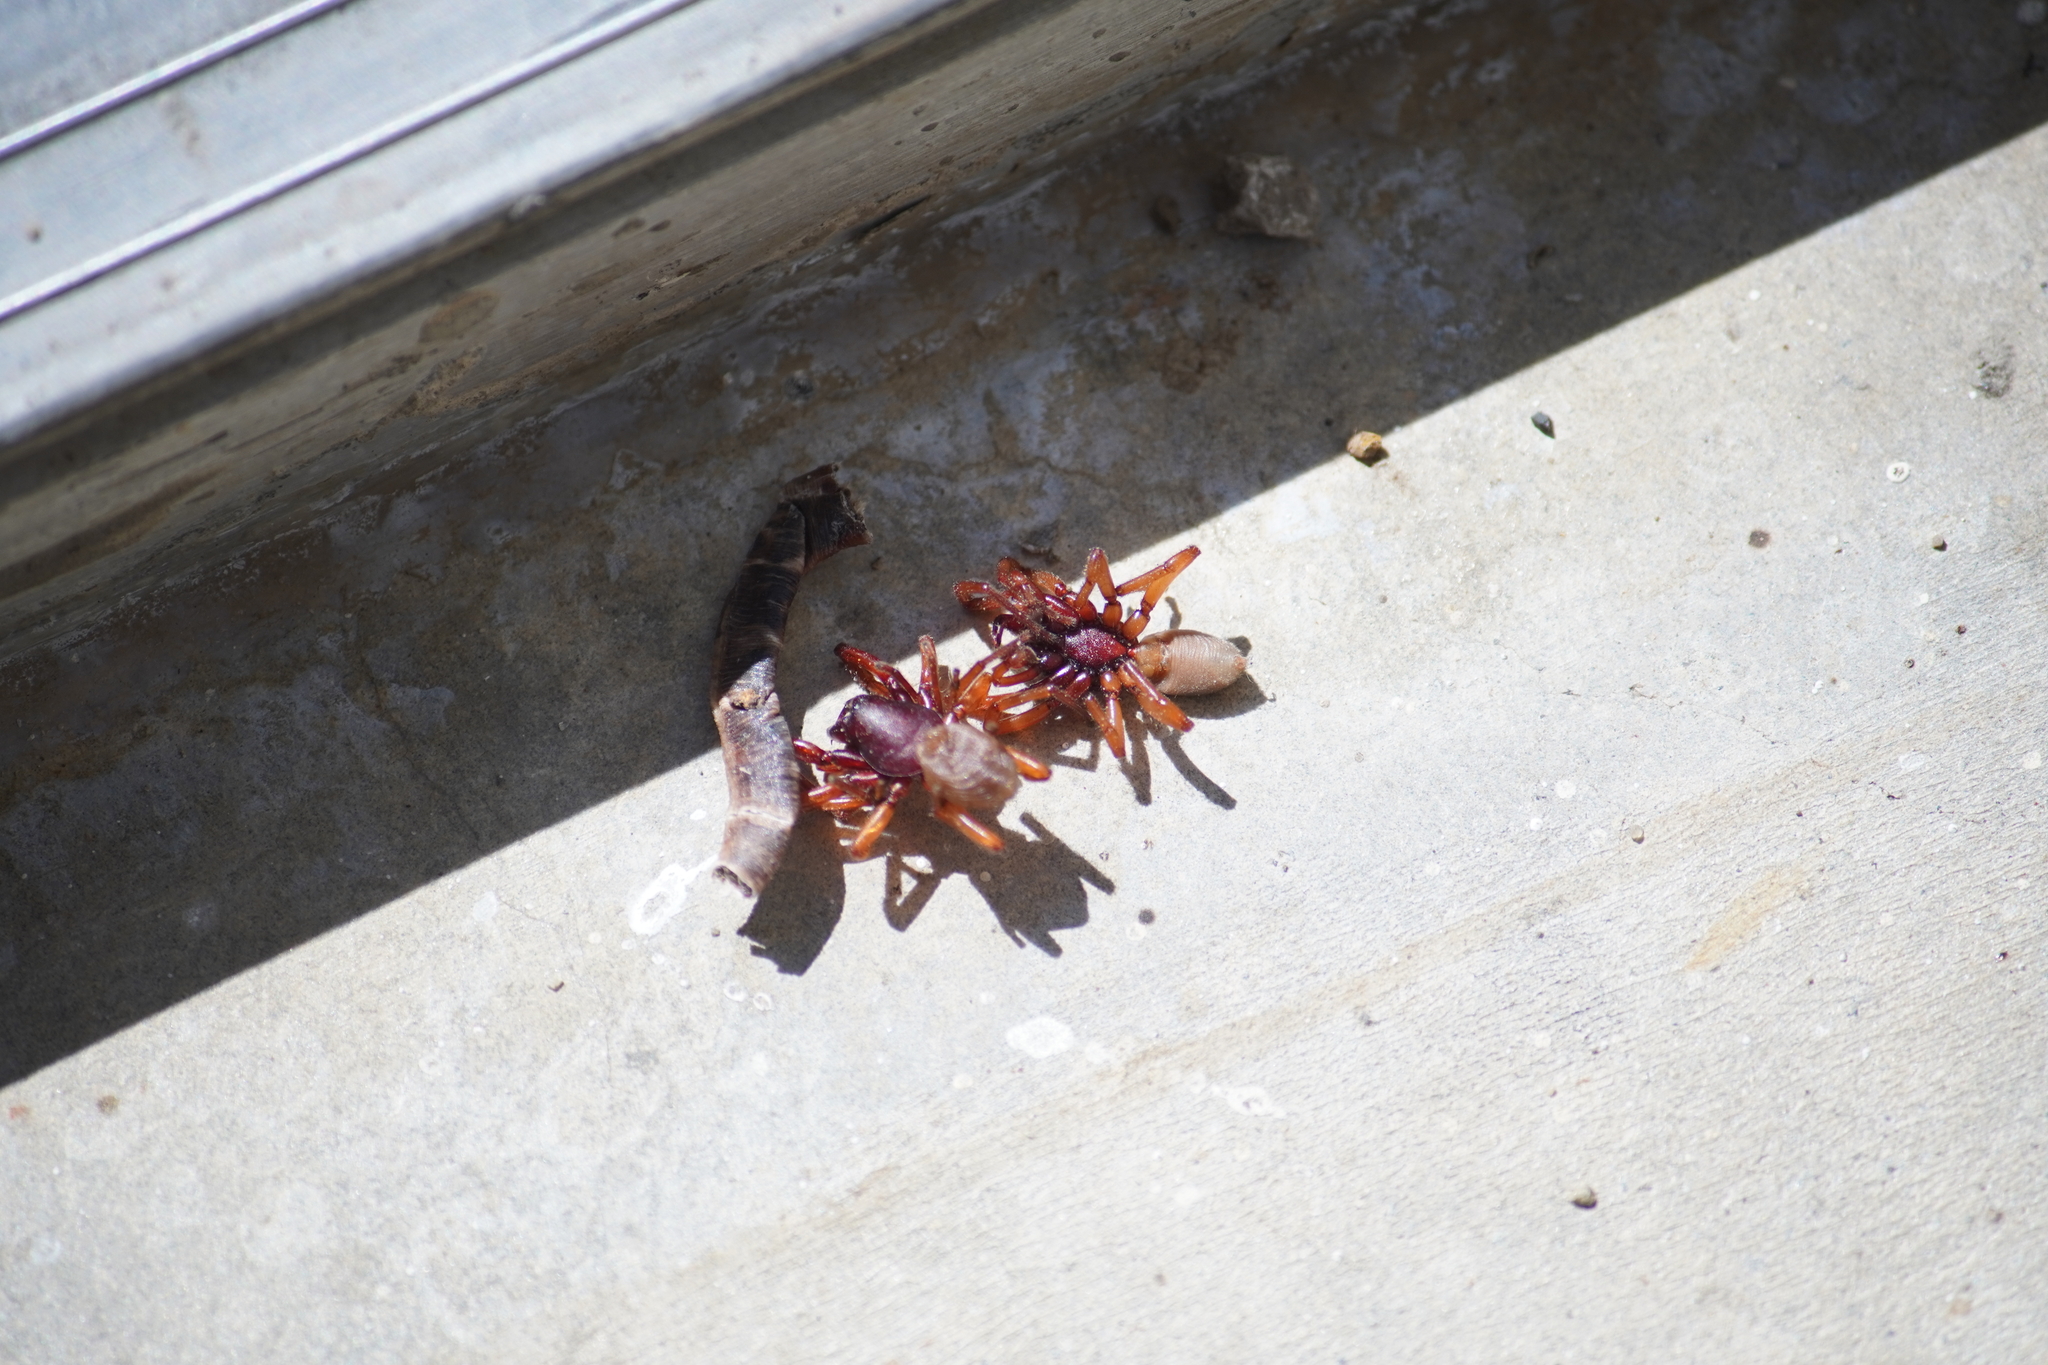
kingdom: Animalia
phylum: Arthropoda
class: Arachnida
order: Araneae
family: Dysderidae
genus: Dysdera
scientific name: Dysdera crocata
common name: Woodlouse spider
